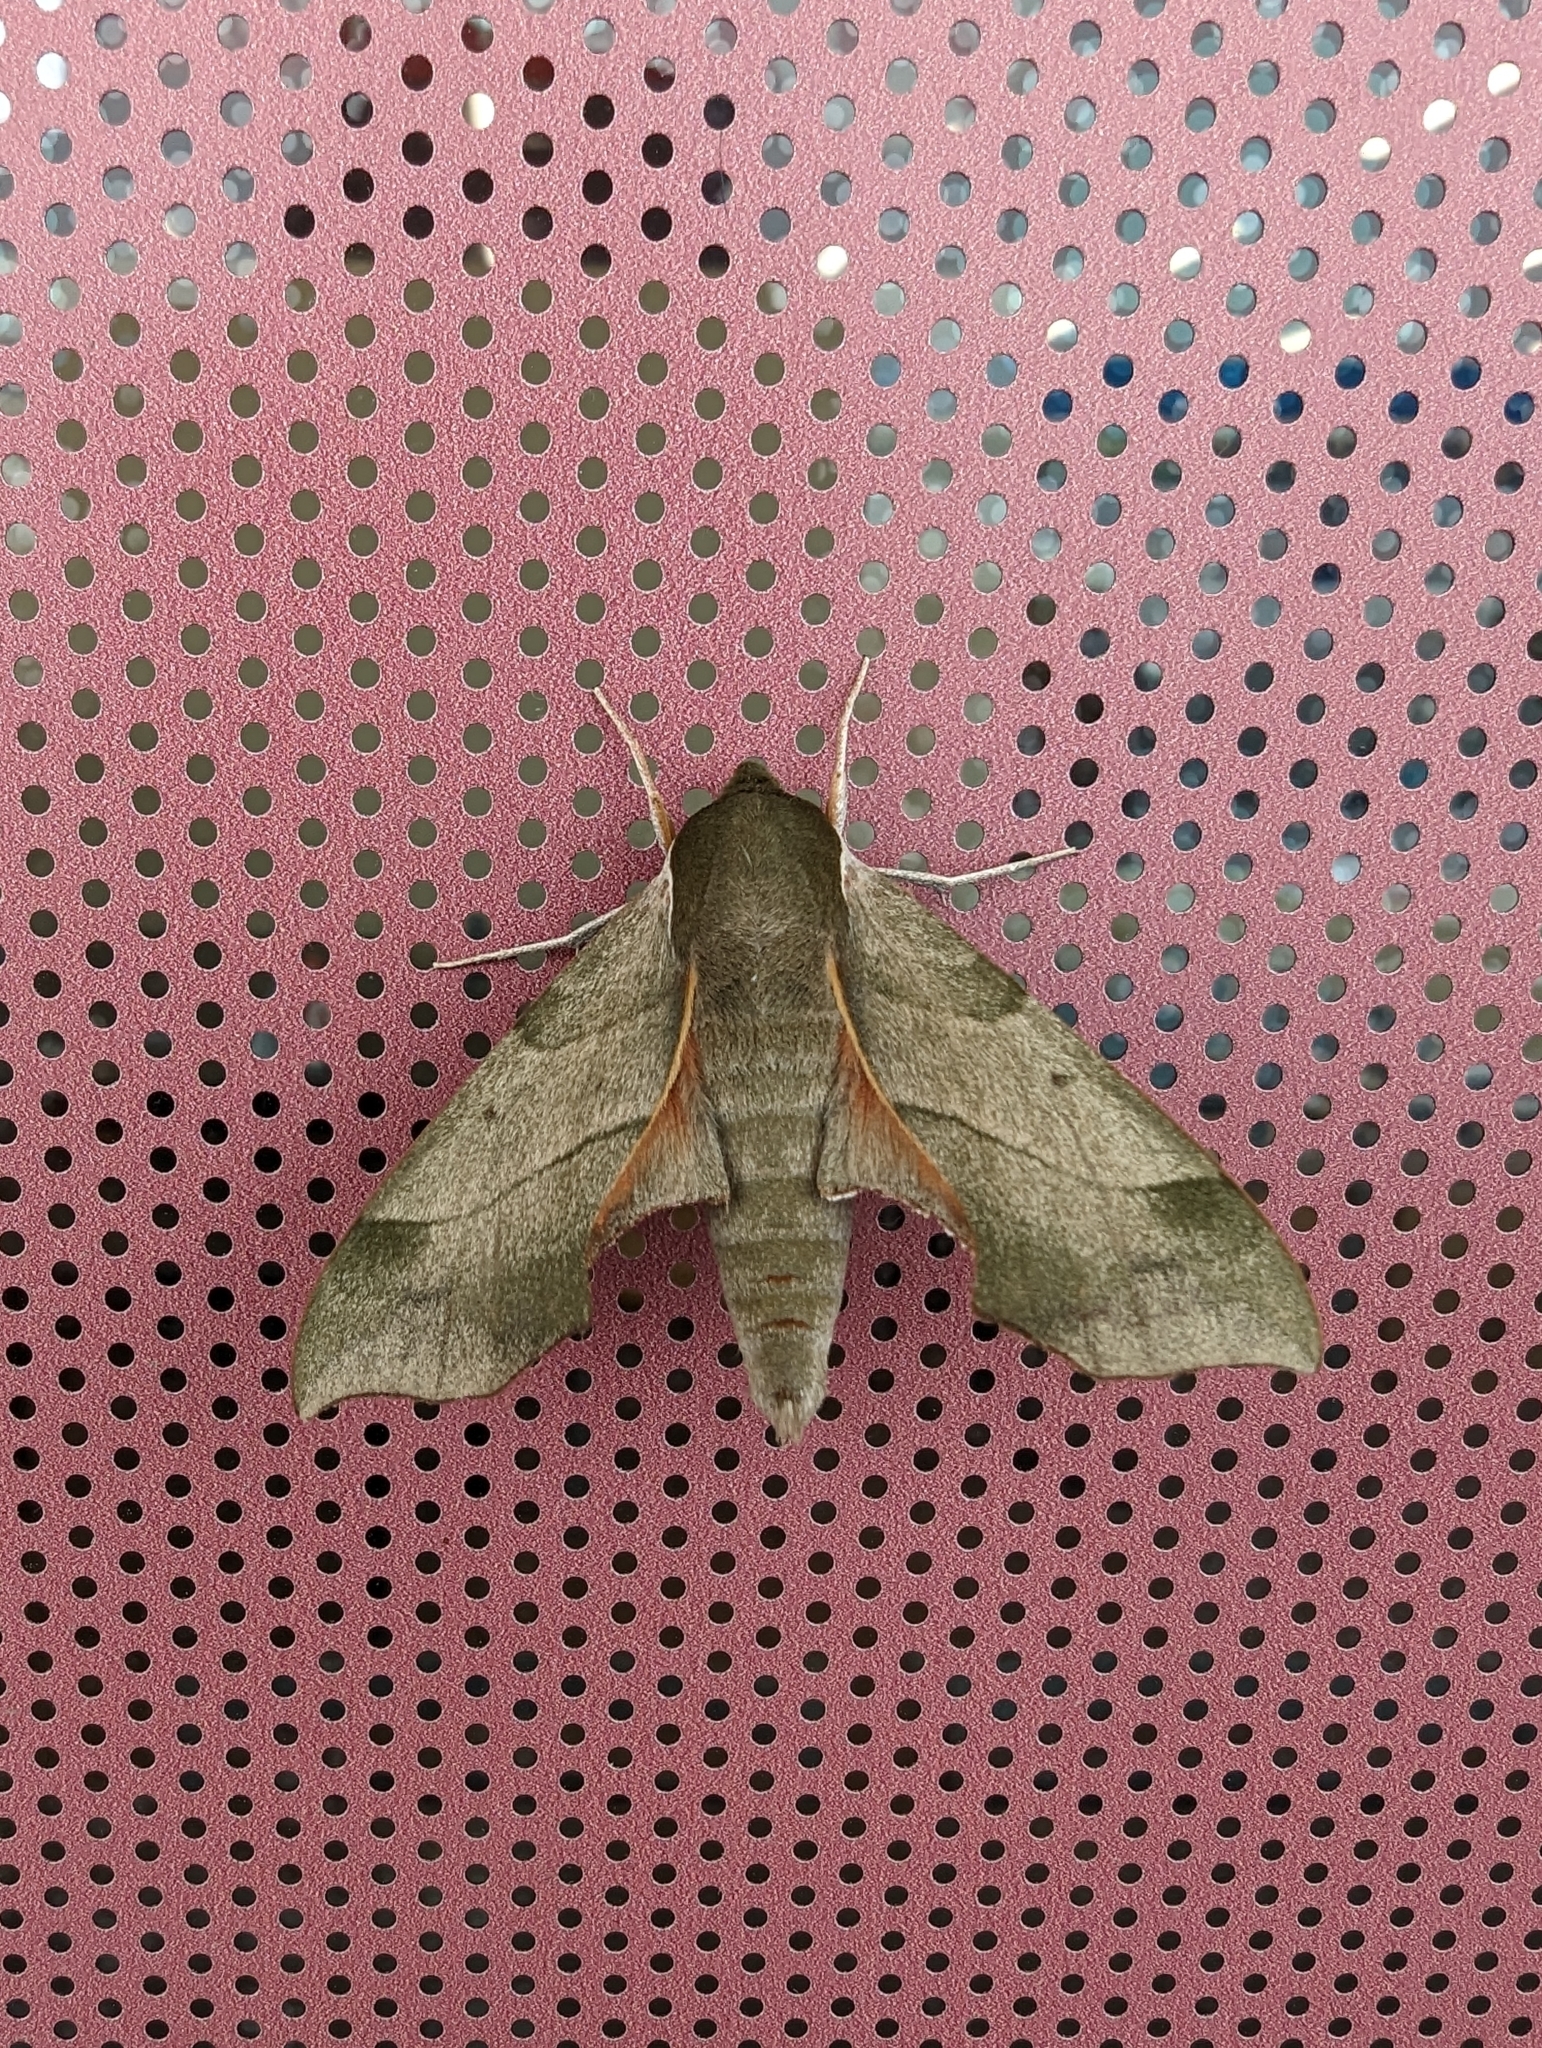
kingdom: Animalia
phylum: Arthropoda
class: Insecta
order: Lepidoptera
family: Sphingidae
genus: Darapsa
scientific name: Darapsa myron
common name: Hog sphinx
